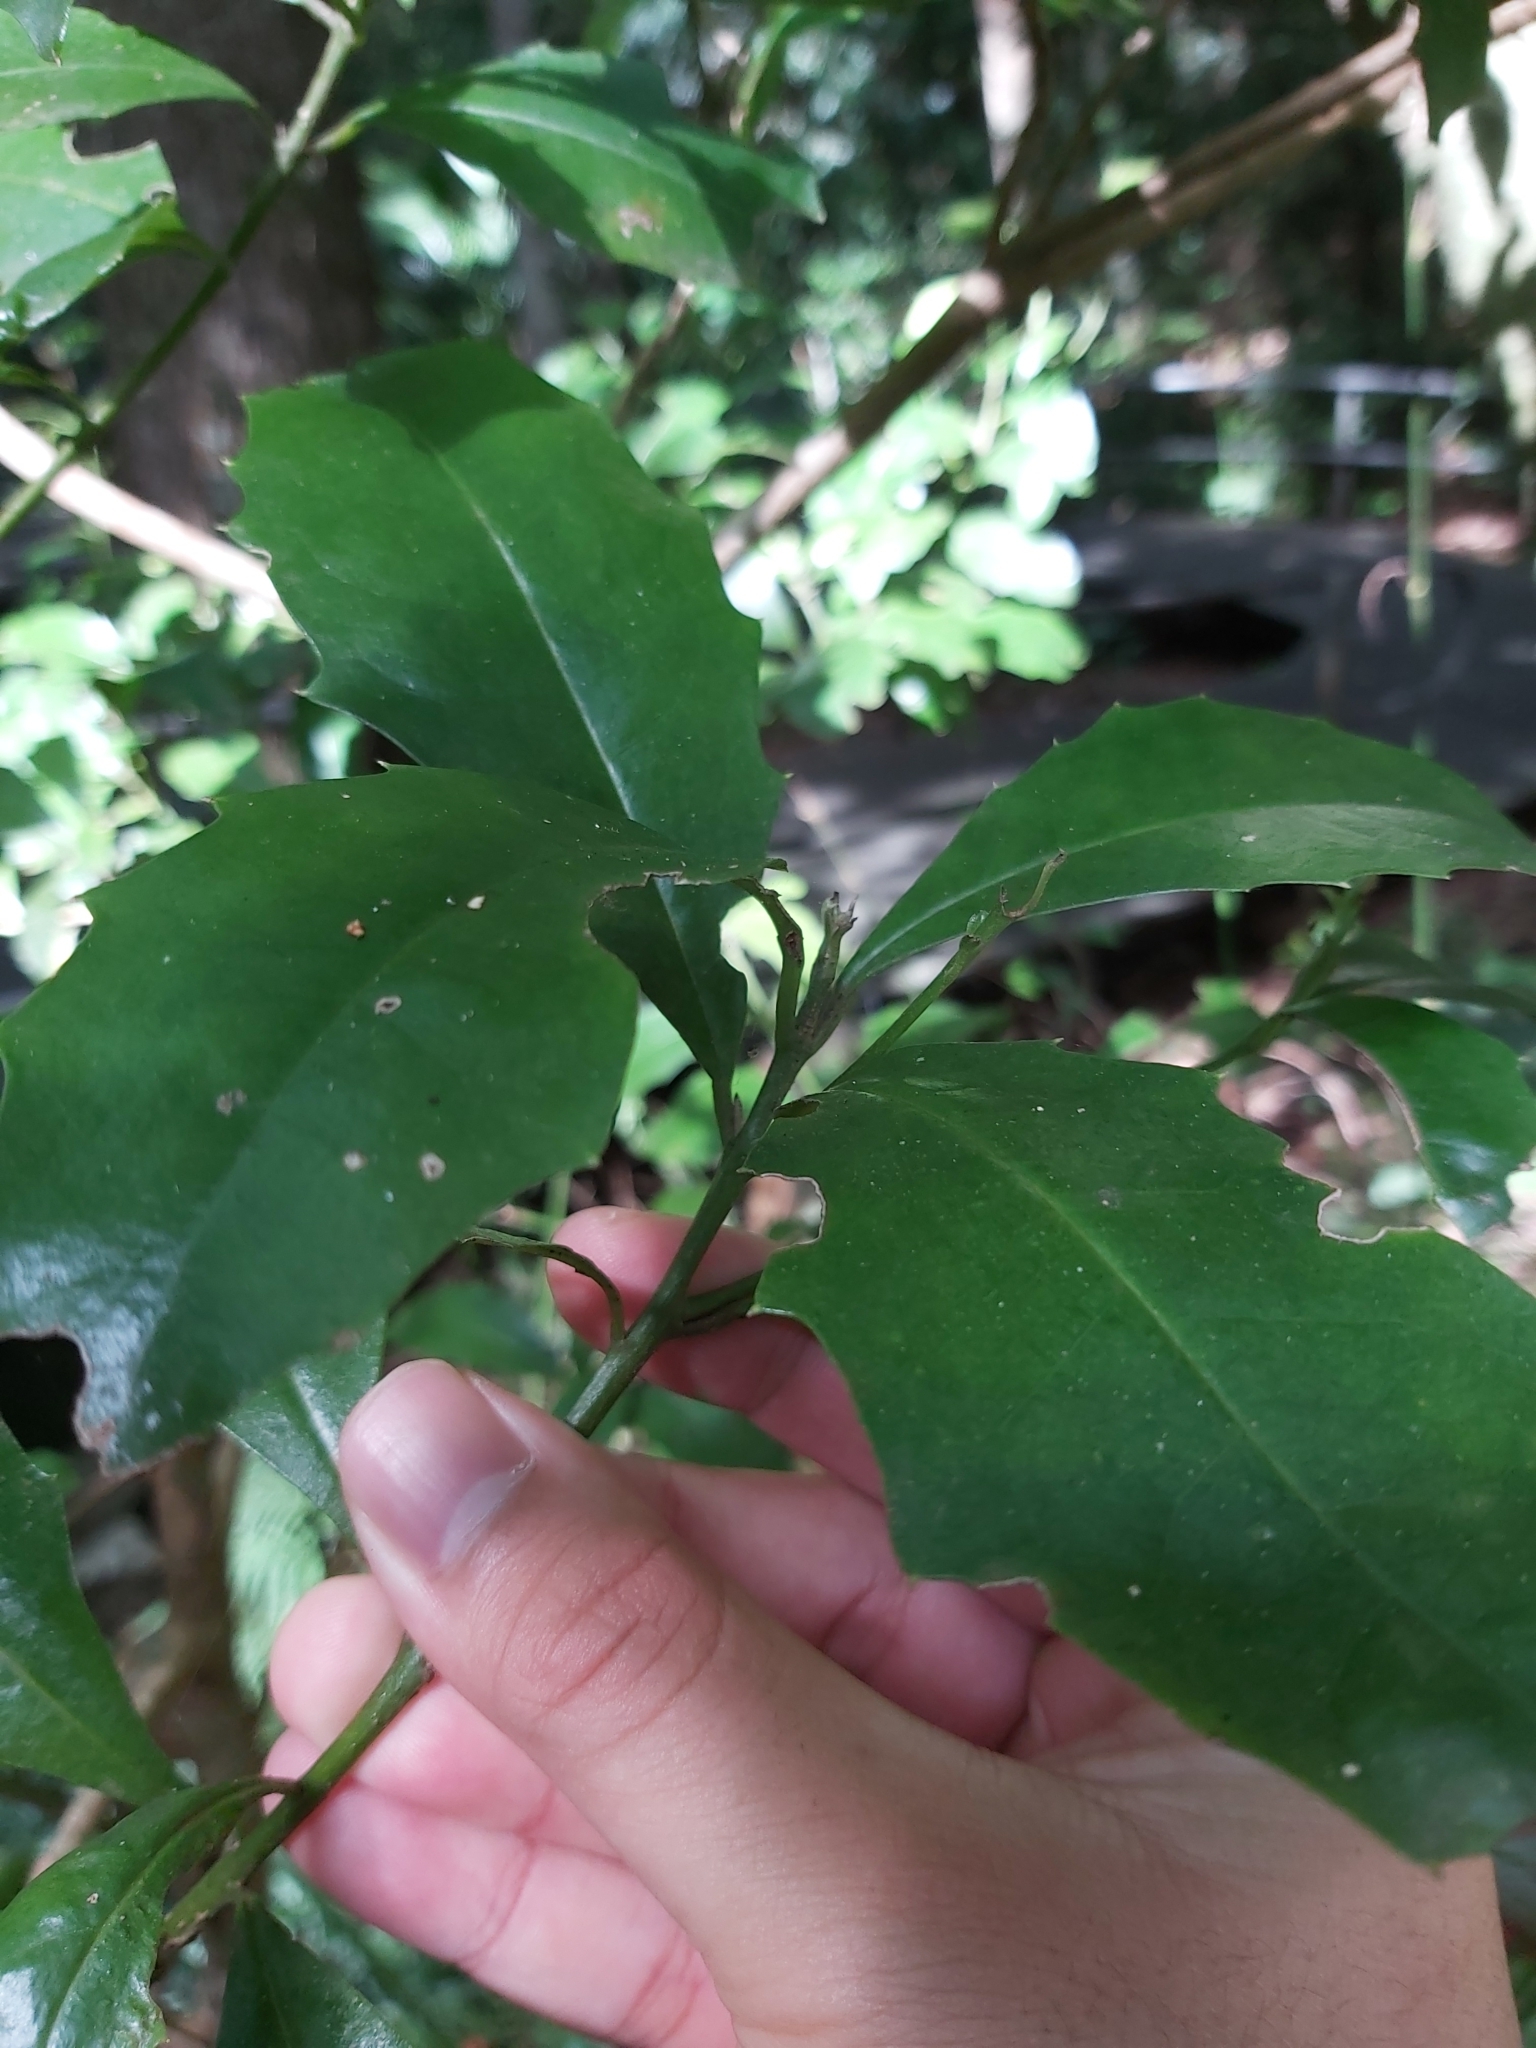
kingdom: Plantae
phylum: Tracheophyta
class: Magnoliopsida
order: Laurales
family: Atherospermataceae
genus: Doryphora
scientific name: Doryphora sassafras
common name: Golden-sassafras
